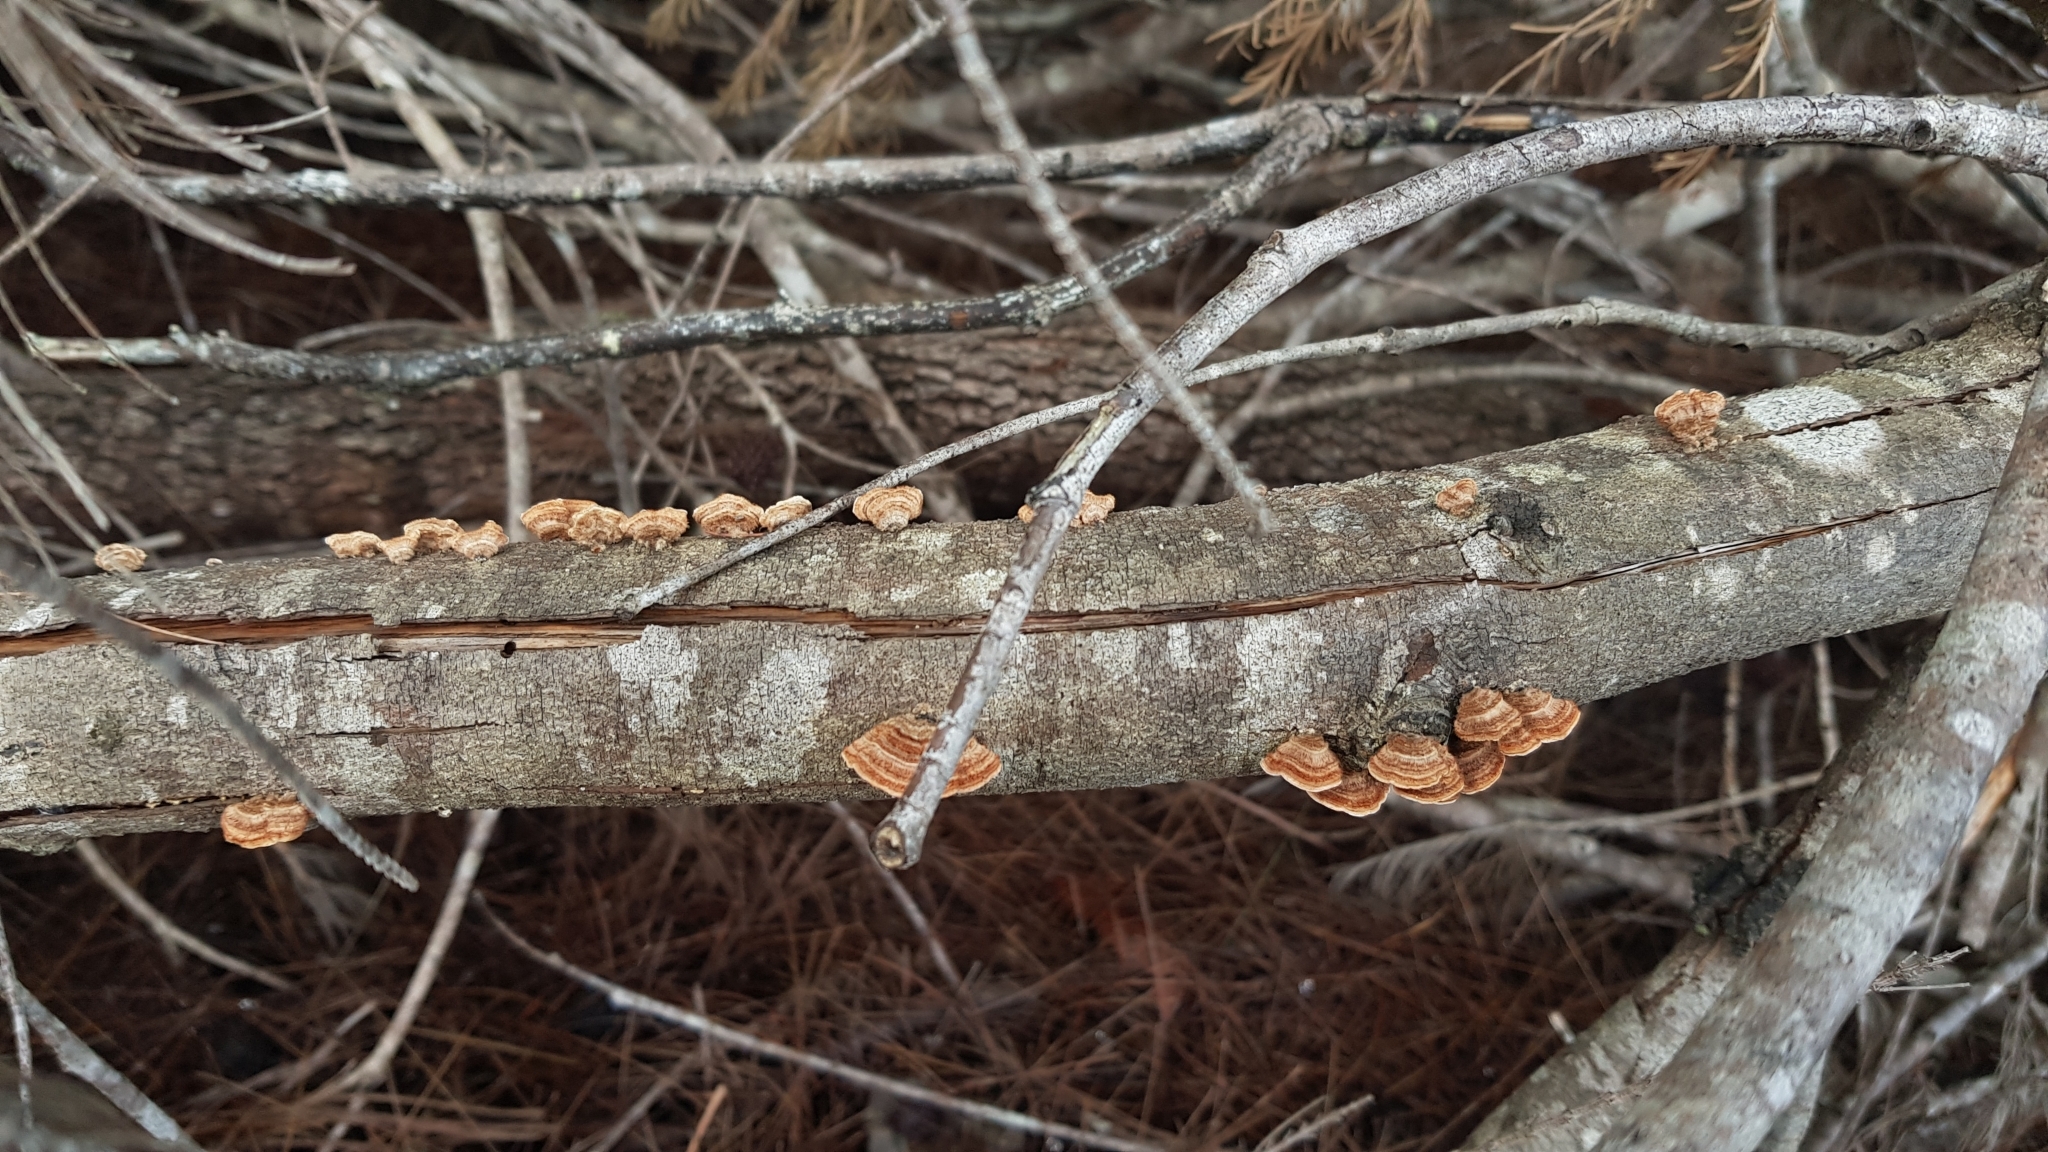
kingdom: Fungi
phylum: Basidiomycota
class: Agaricomycetes
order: Russulales
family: Stereaceae
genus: Xylobolus
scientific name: Xylobolus illudens
